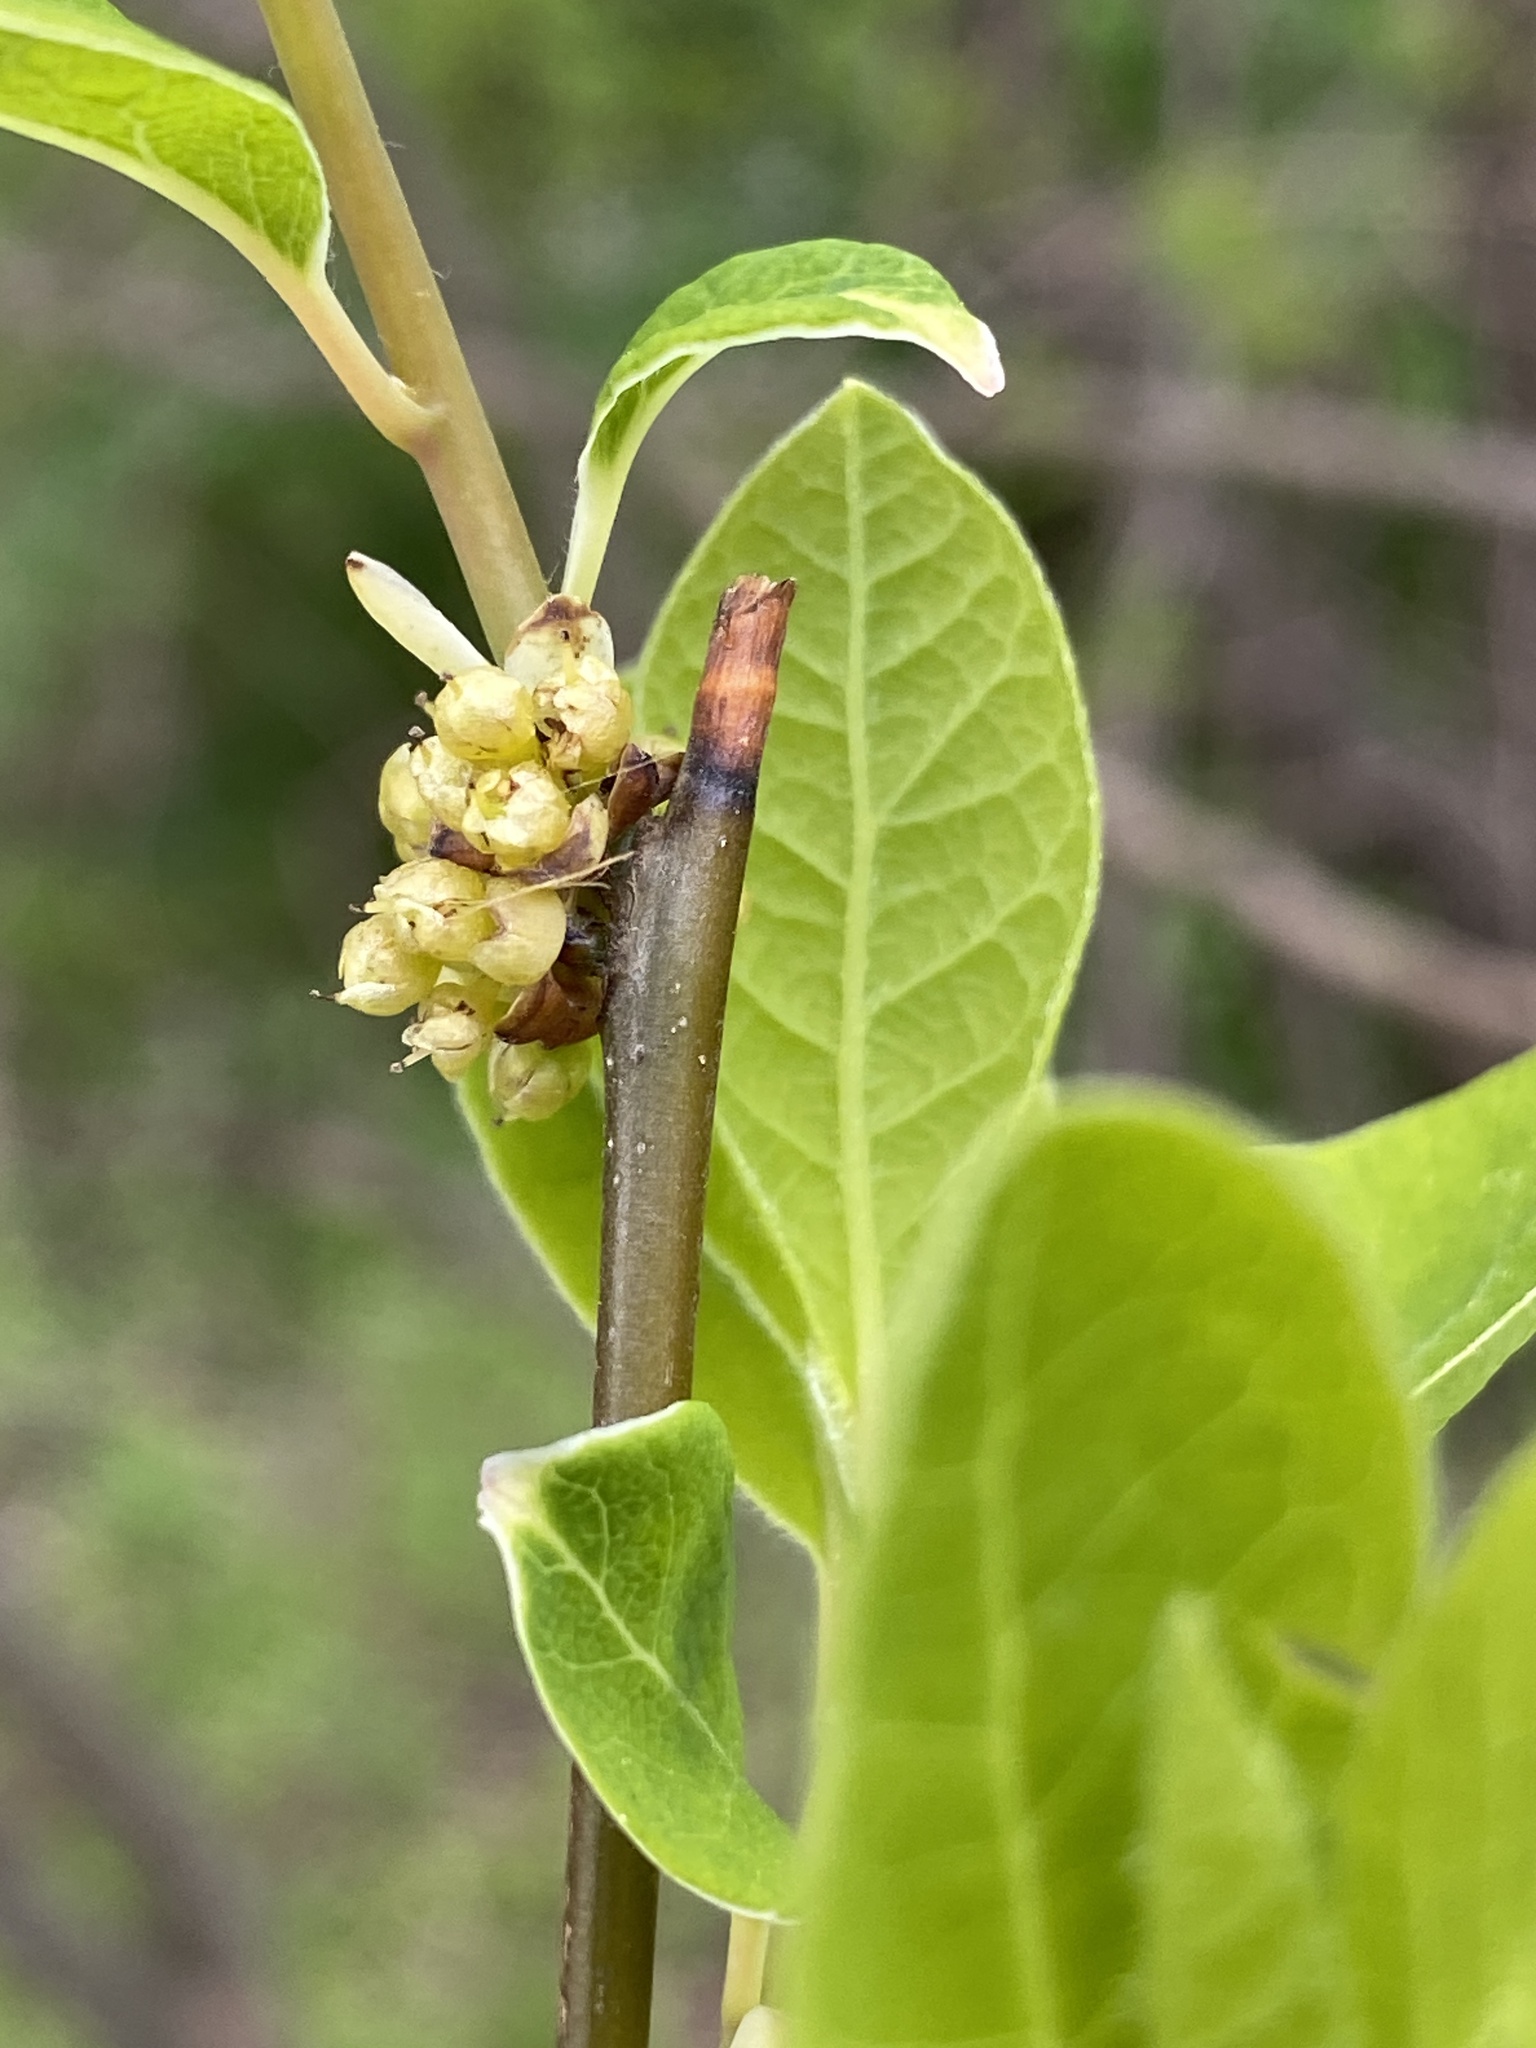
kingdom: Plantae
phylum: Tracheophyta
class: Magnoliopsida
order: Laurales
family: Lauraceae
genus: Lindera
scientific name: Lindera benzoin
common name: Spicebush
